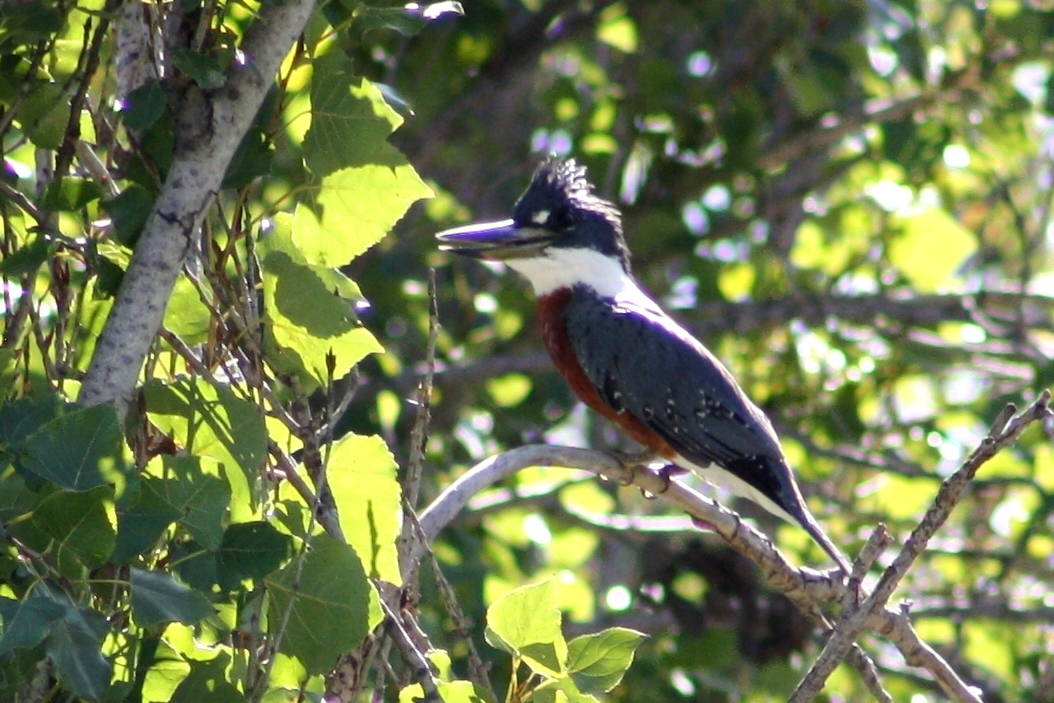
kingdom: Animalia
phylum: Chordata
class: Aves
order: Coraciiformes
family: Alcedinidae
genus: Megaceryle
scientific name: Megaceryle torquata
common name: Ringed kingfisher
